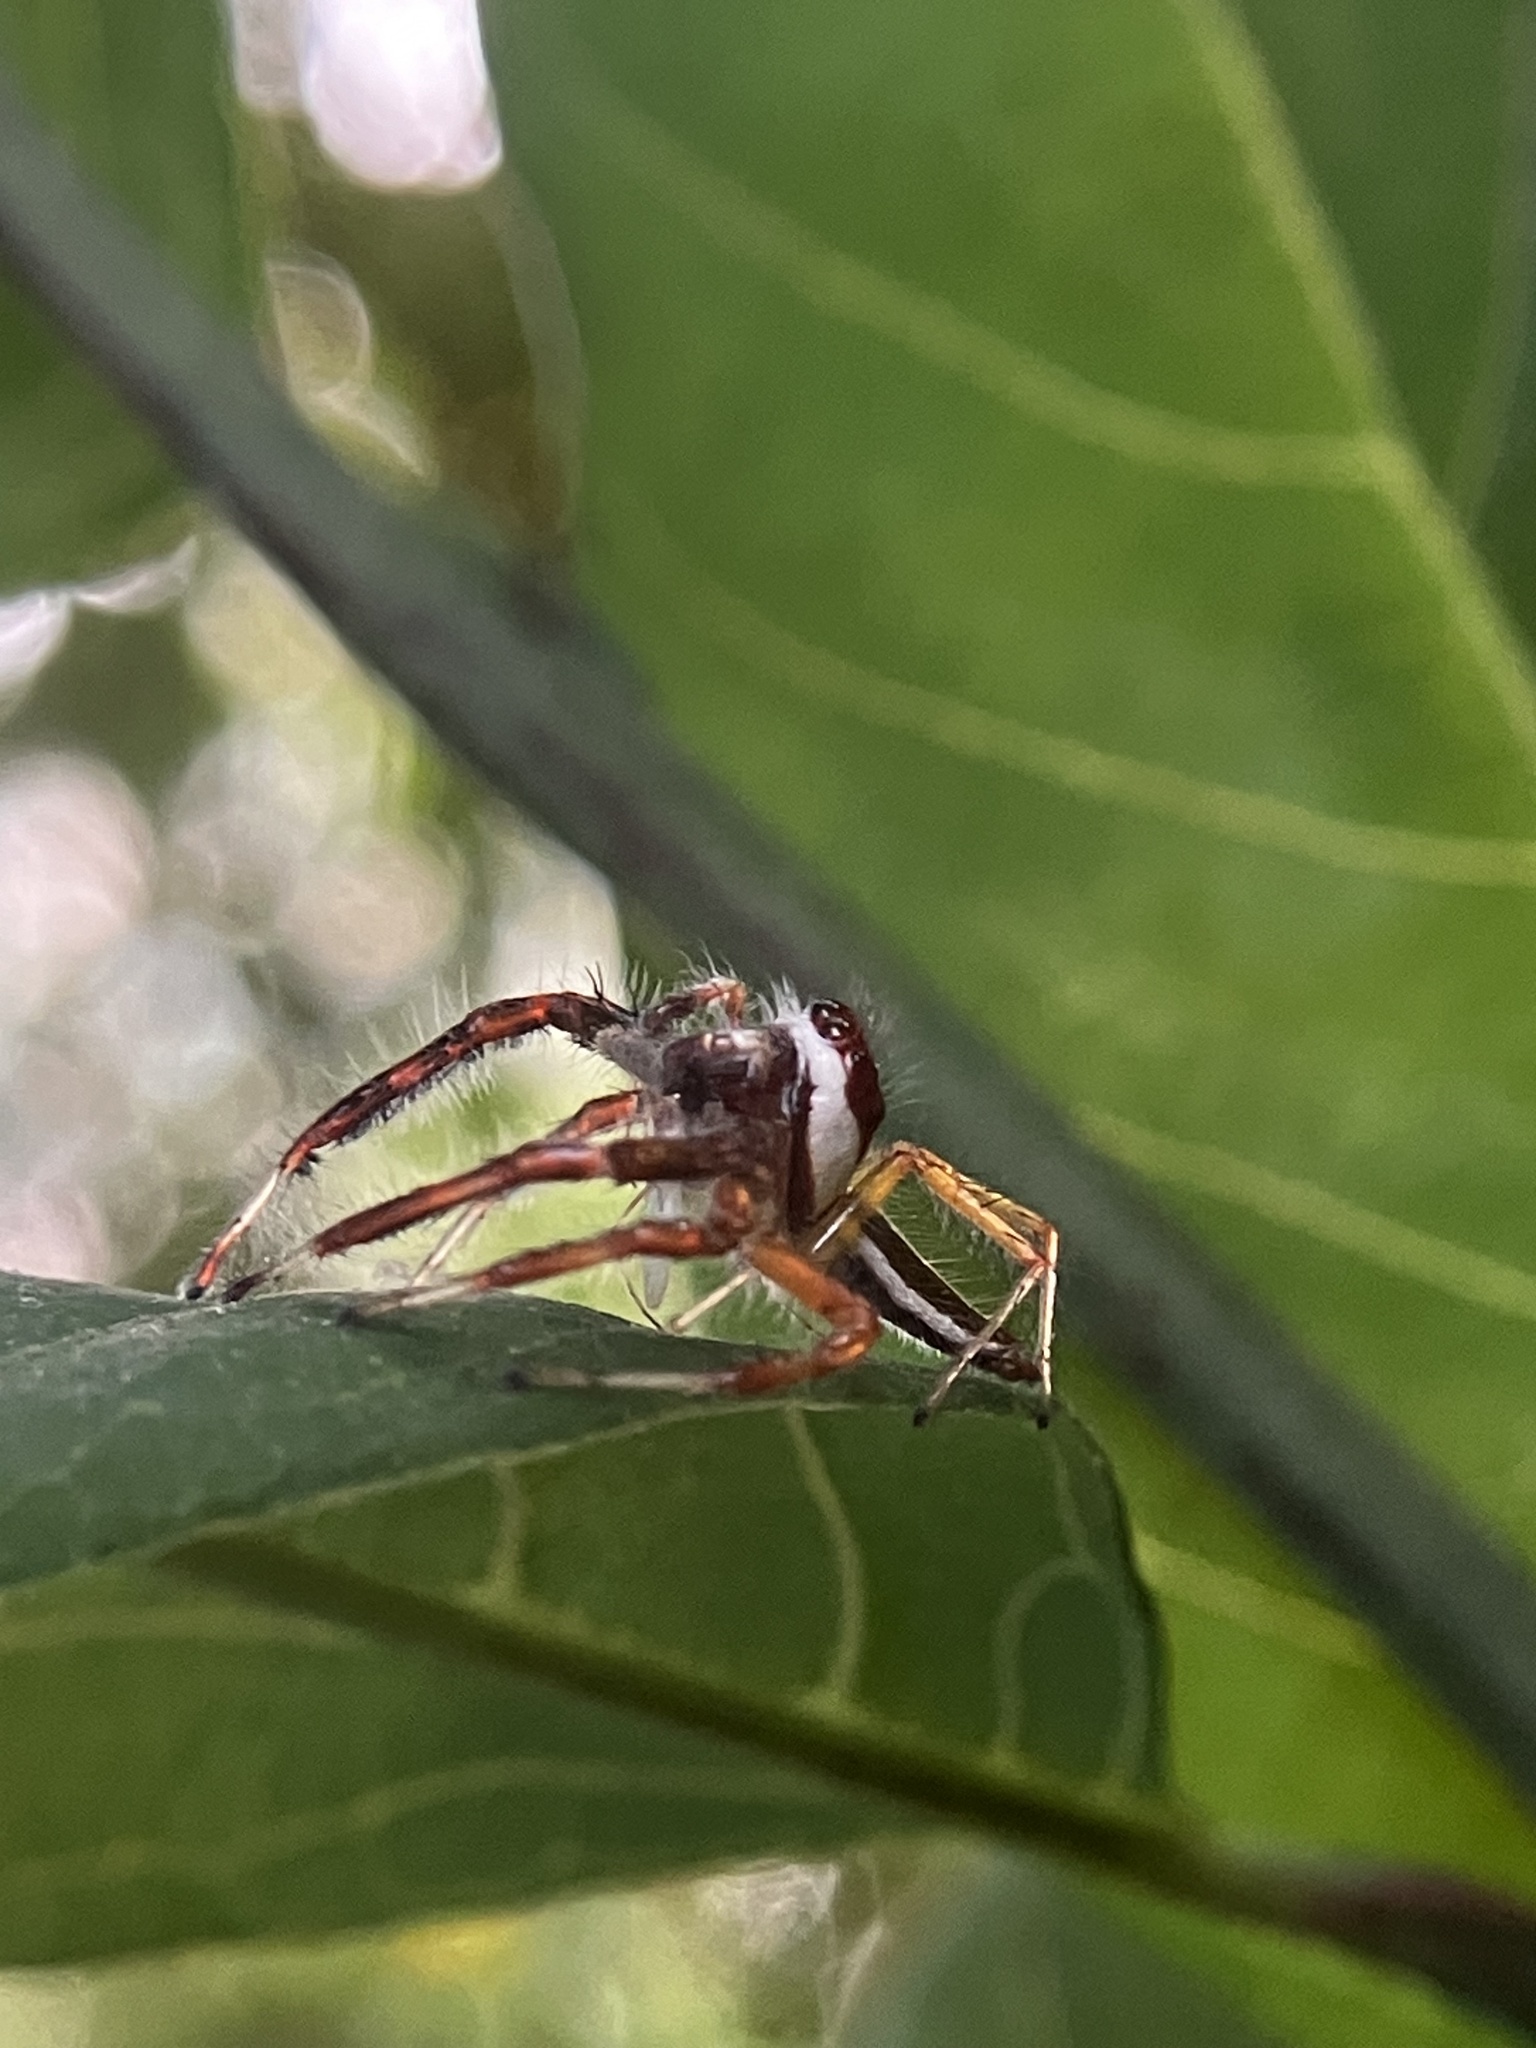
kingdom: Animalia
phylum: Arthropoda
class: Arachnida
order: Araneae
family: Salticidae
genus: Telamonia
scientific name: Telamonia dimidiata
